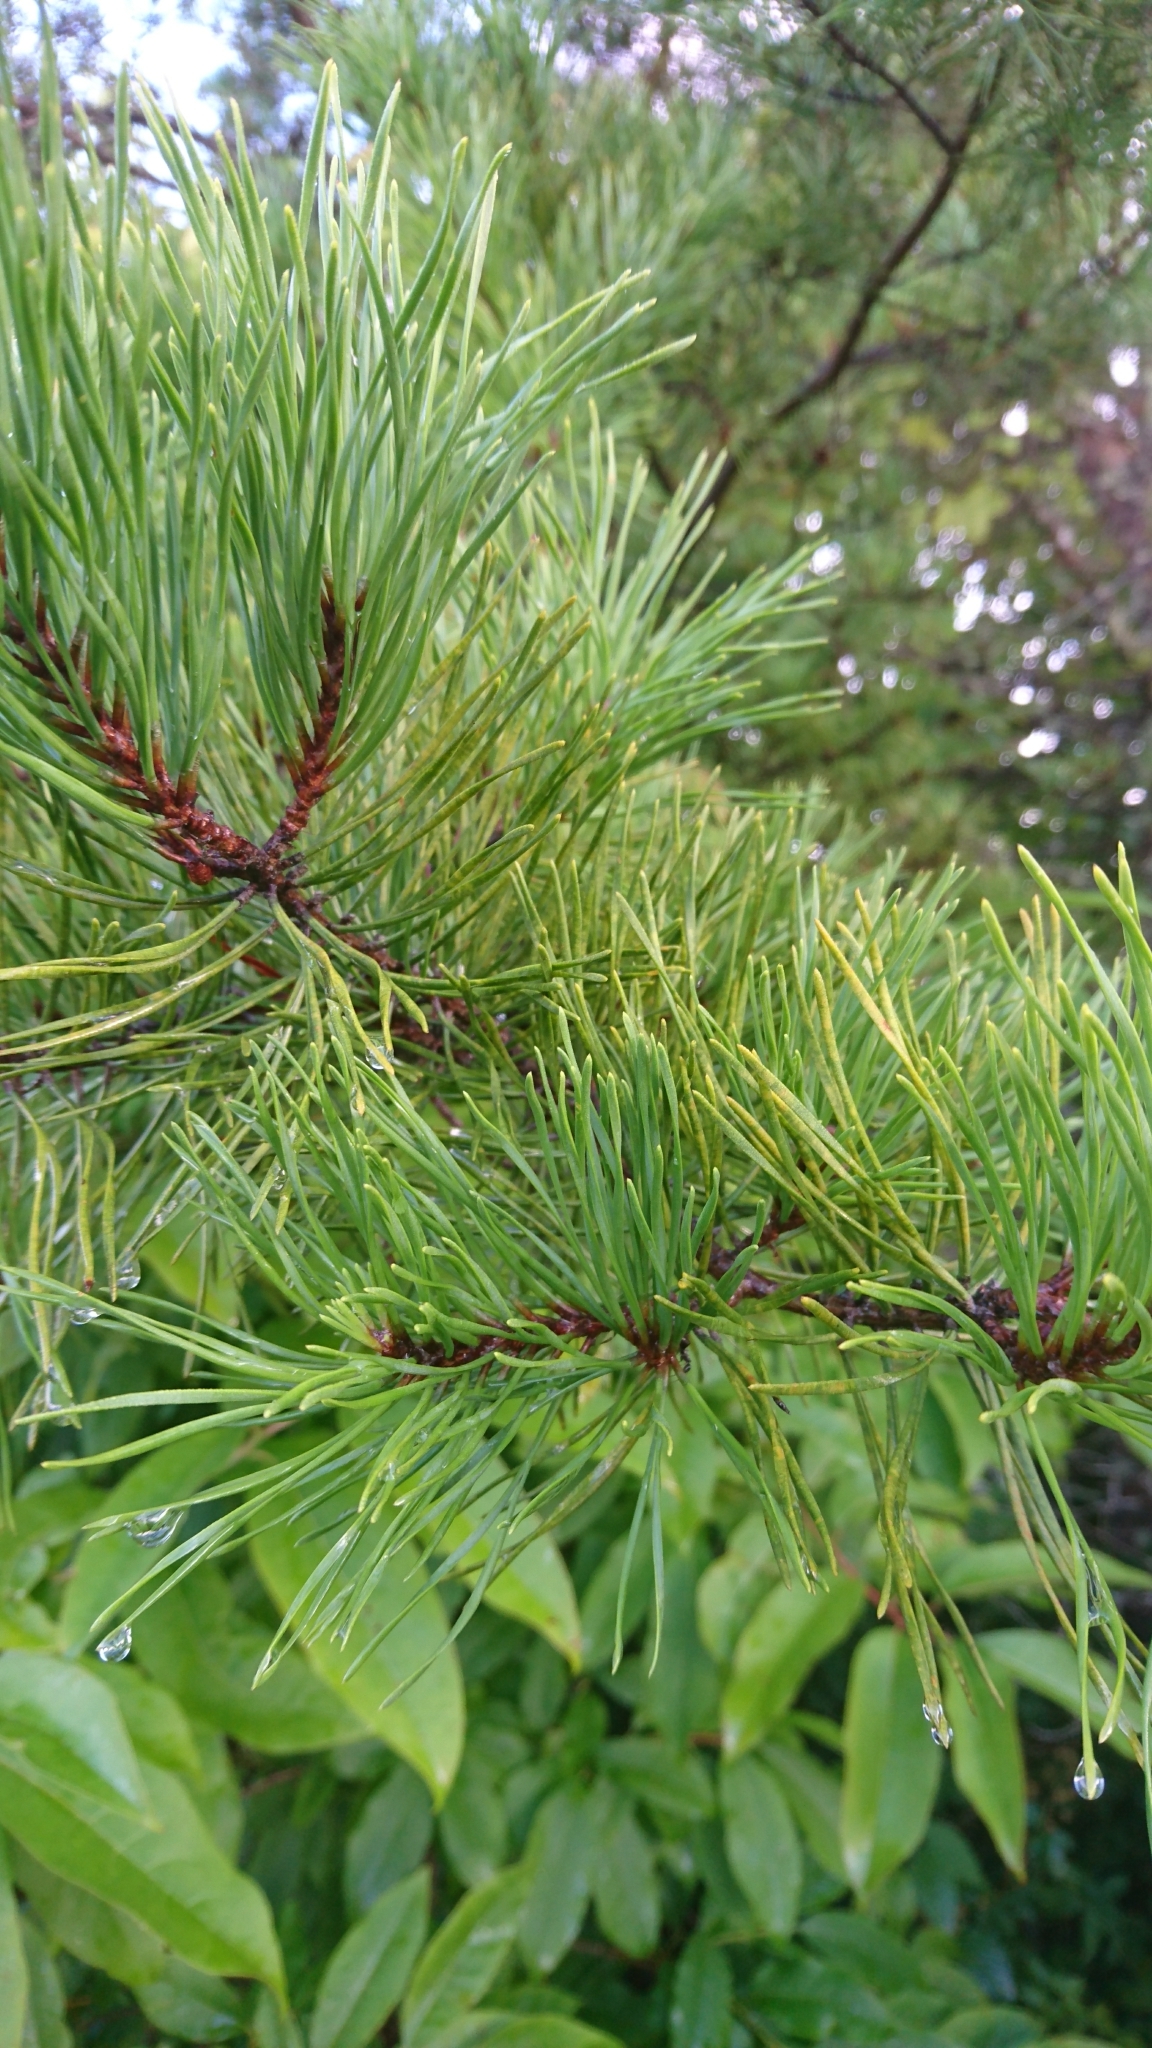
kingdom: Plantae
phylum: Tracheophyta
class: Pinopsida
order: Pinales
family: Pinaceae
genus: Pinus
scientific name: Pinus virginiana
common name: Scrub pine
